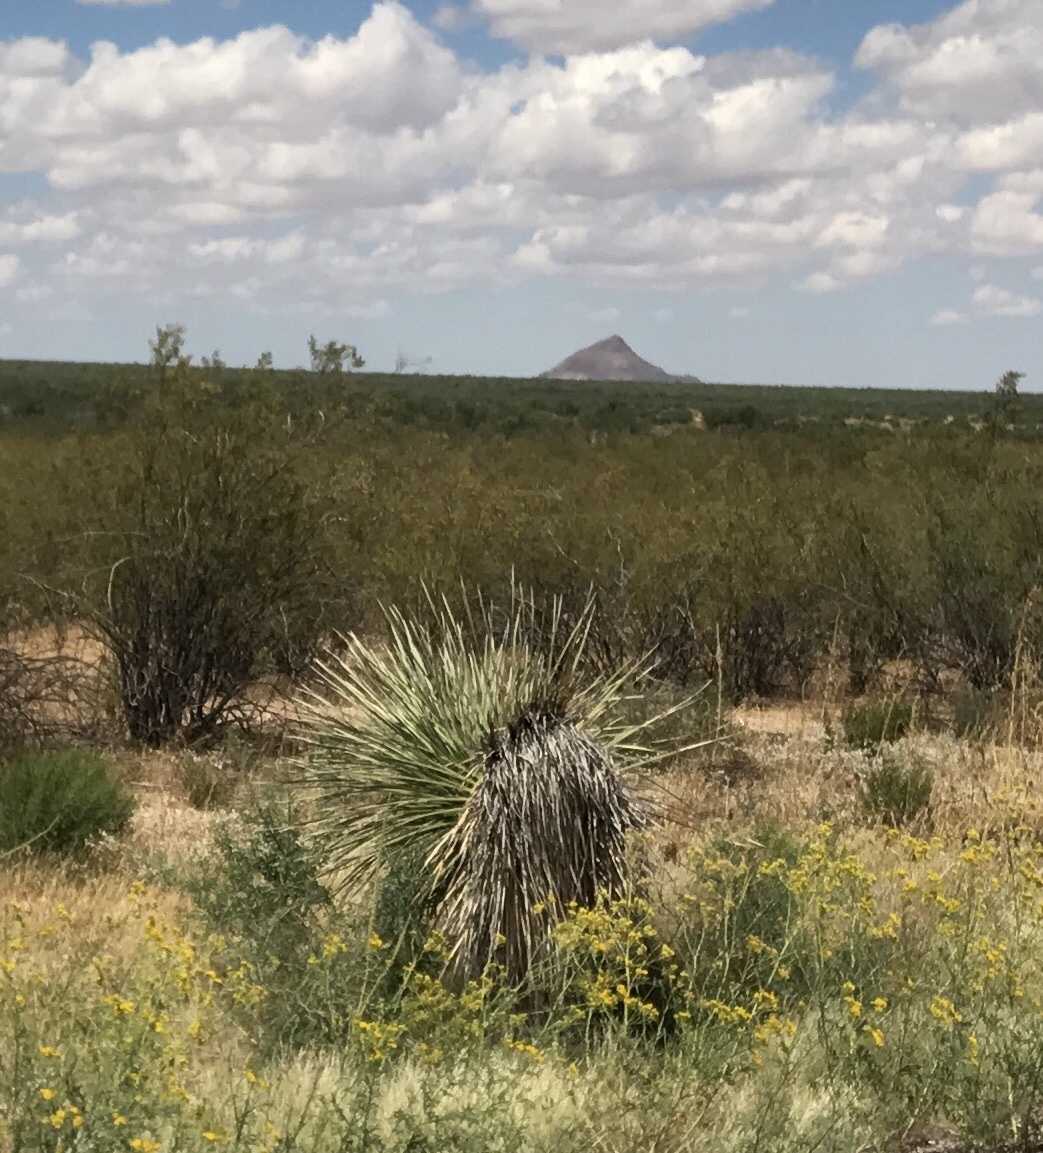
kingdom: Plantae
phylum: Tracheophyta
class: Liliopsida
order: Asparagales
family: Asparagaceae
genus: Yucca
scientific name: Yucca elata
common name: Palmella
